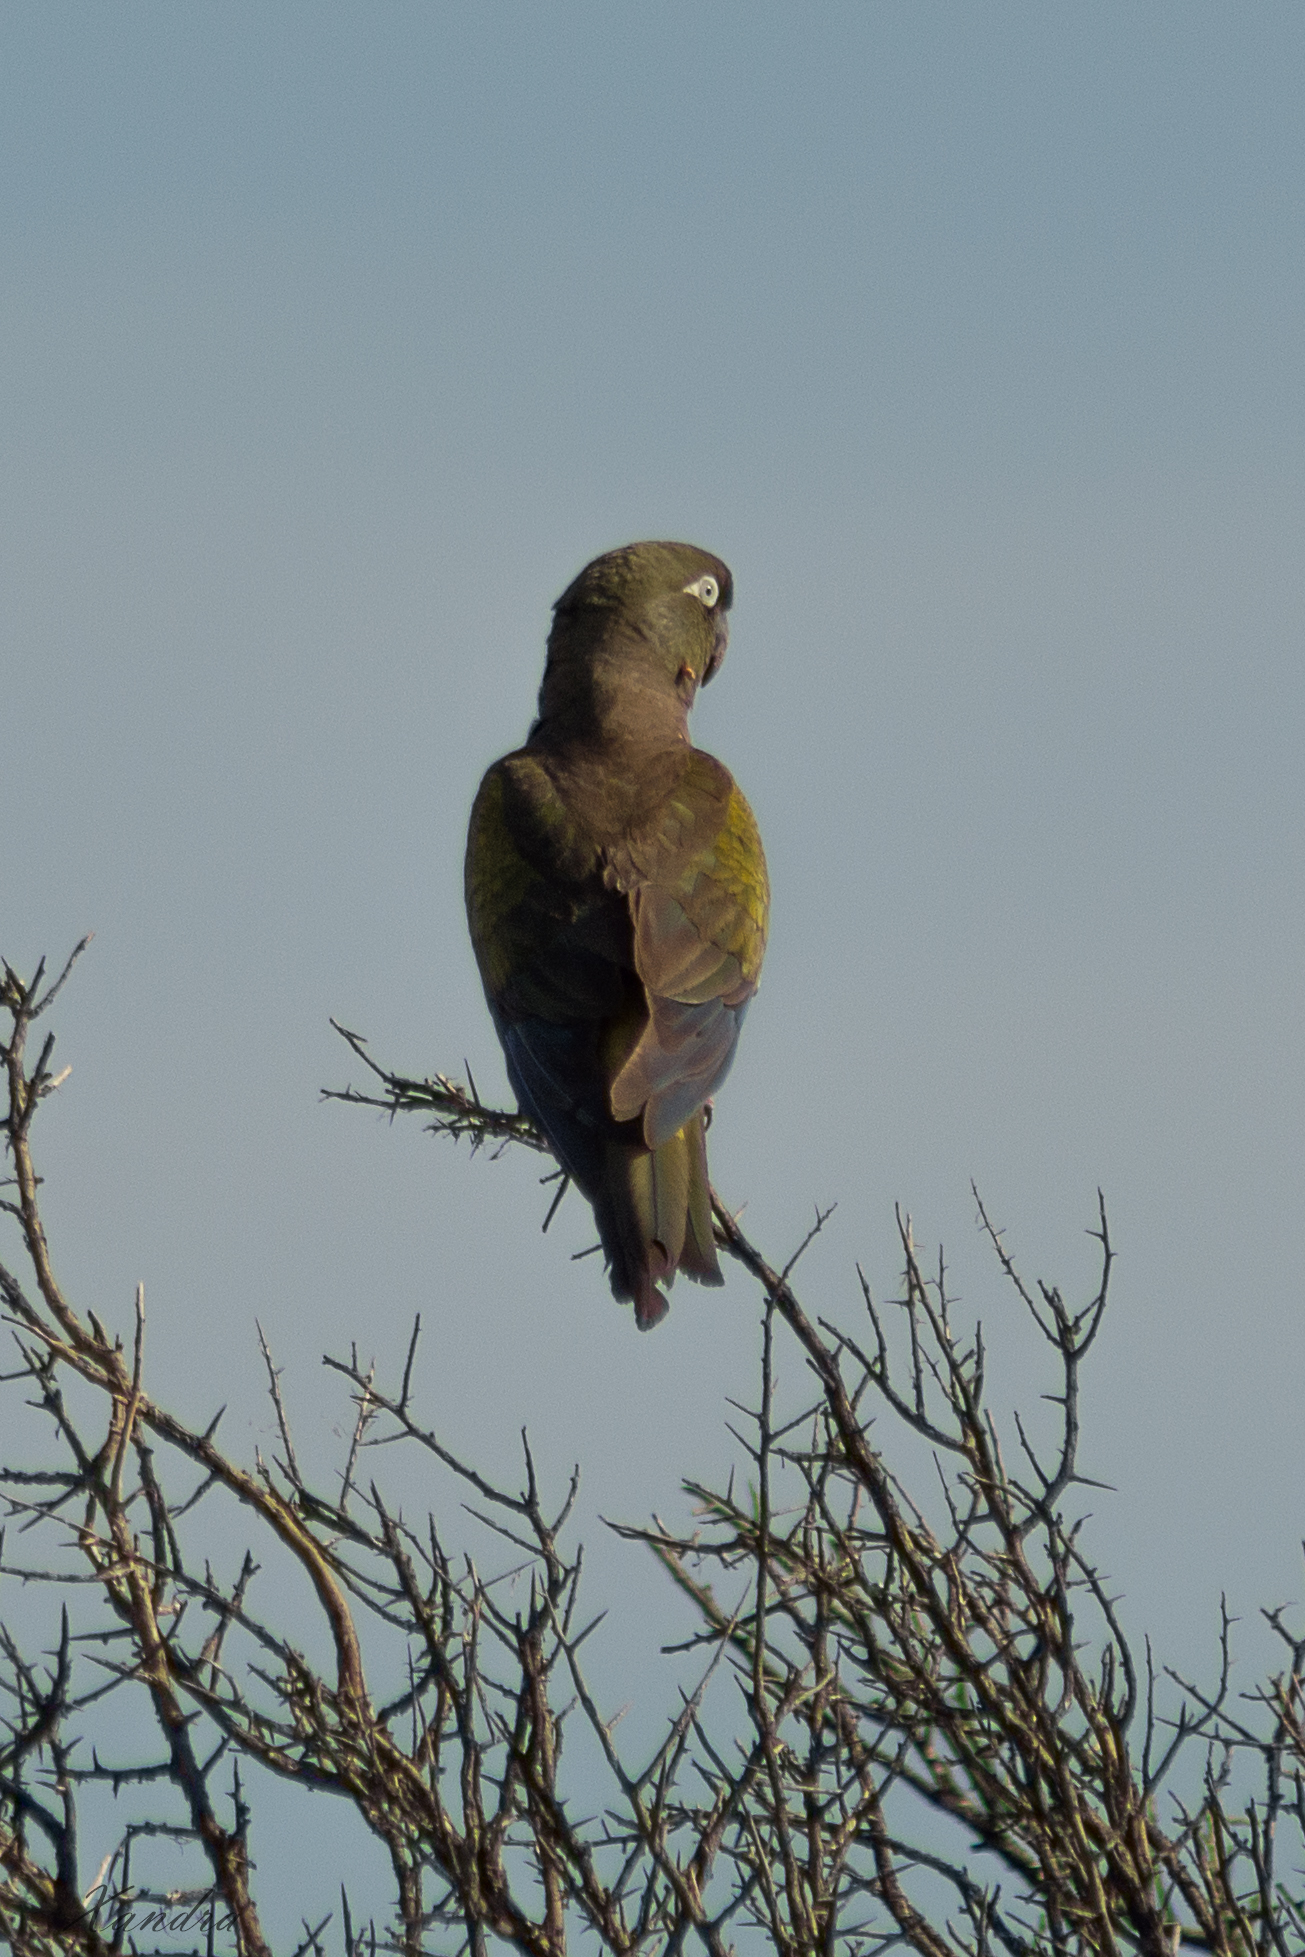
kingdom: Animalia
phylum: Chordata
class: Aves
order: Psittaciformes
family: Psittacidae
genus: Cyanoliseus
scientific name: Cyanoliseus patagonus
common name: Burrowing parrot
